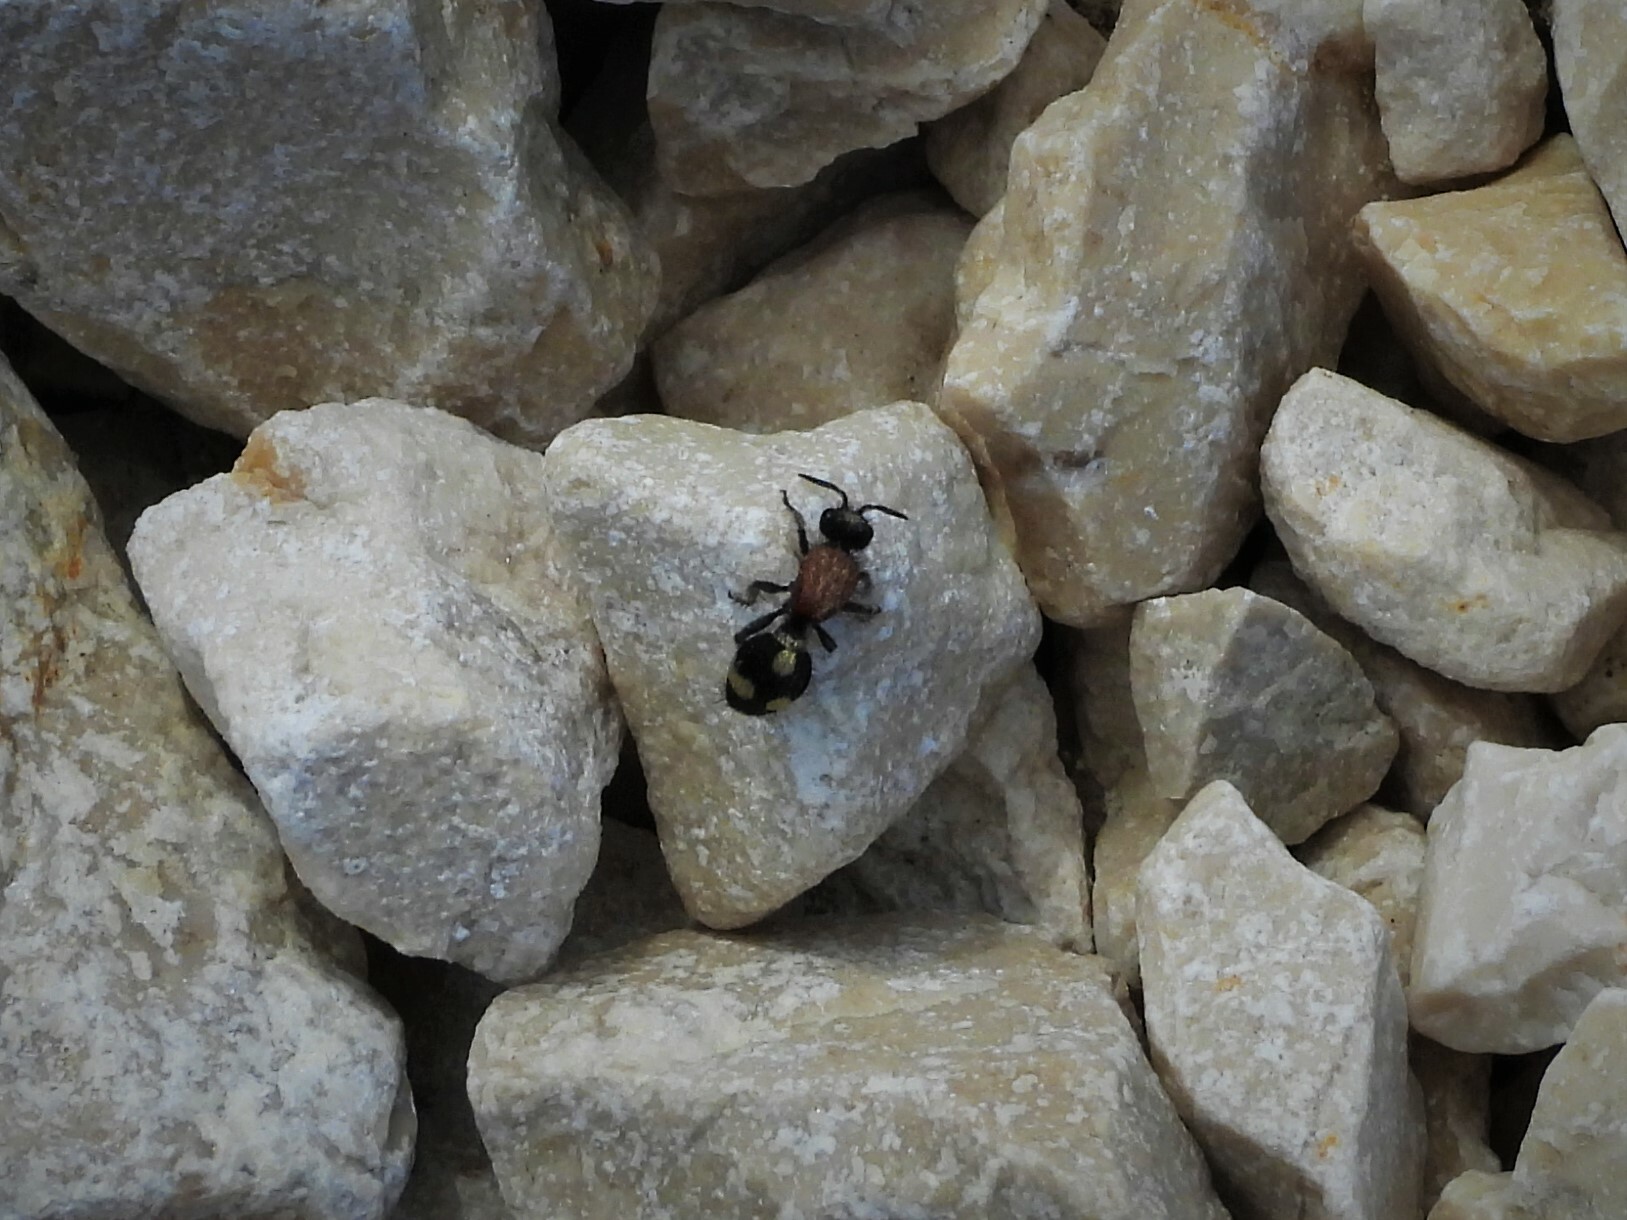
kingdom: Animalia
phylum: Arthropoda
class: Insecta
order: Hymenoptera
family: Mutillidae
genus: Dasylabris
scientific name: Dasylabris maura
